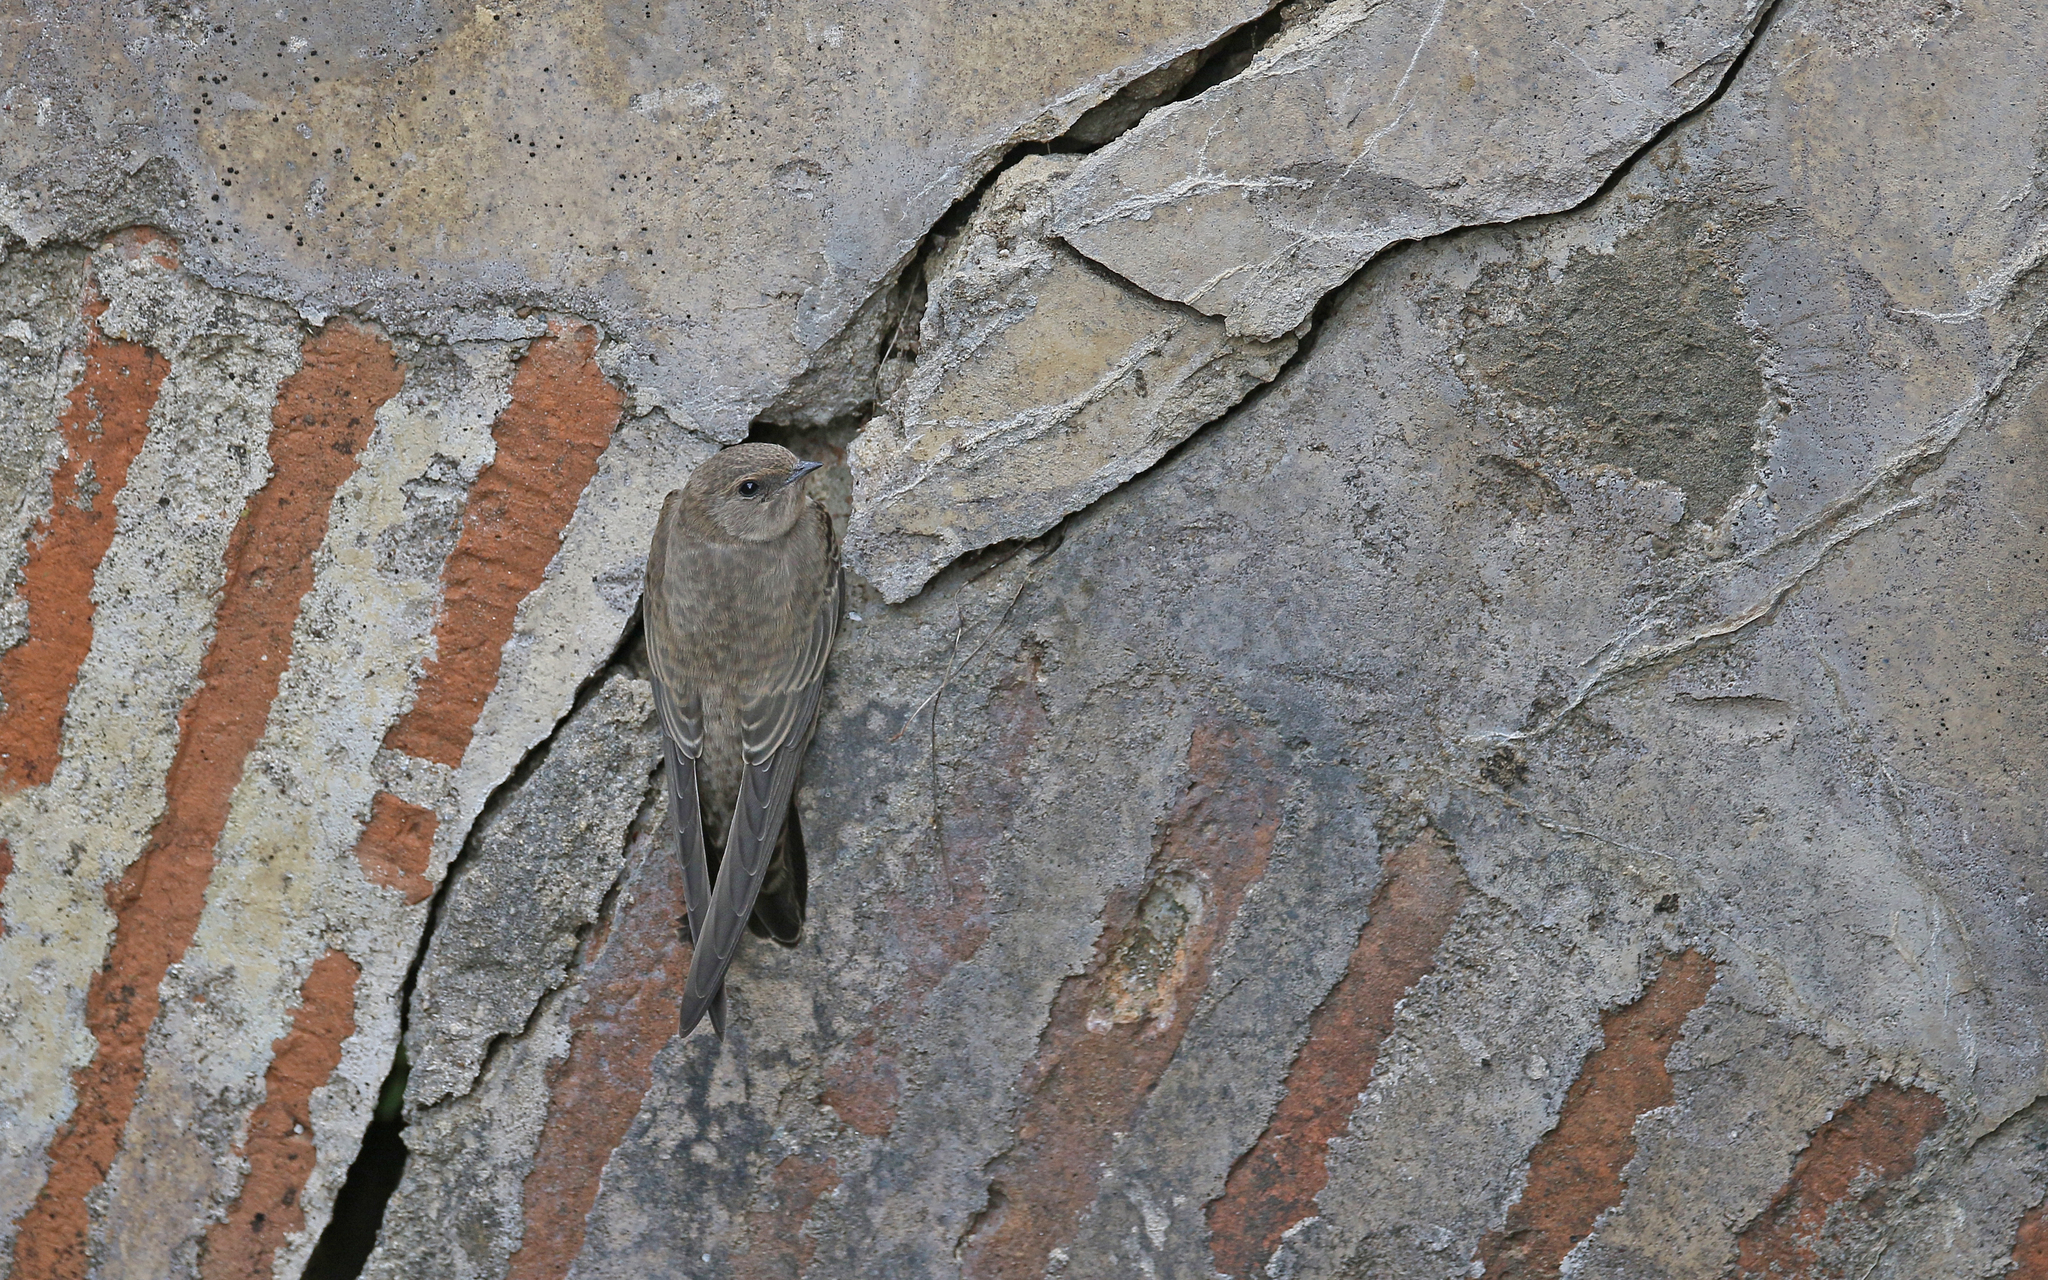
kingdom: Animalia
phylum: Chordata
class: Aves
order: Passeriformes
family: Hirundinidae
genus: Ptyonoprogne
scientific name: Ptyonoprogne rupestris
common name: Eurasian crag martin
